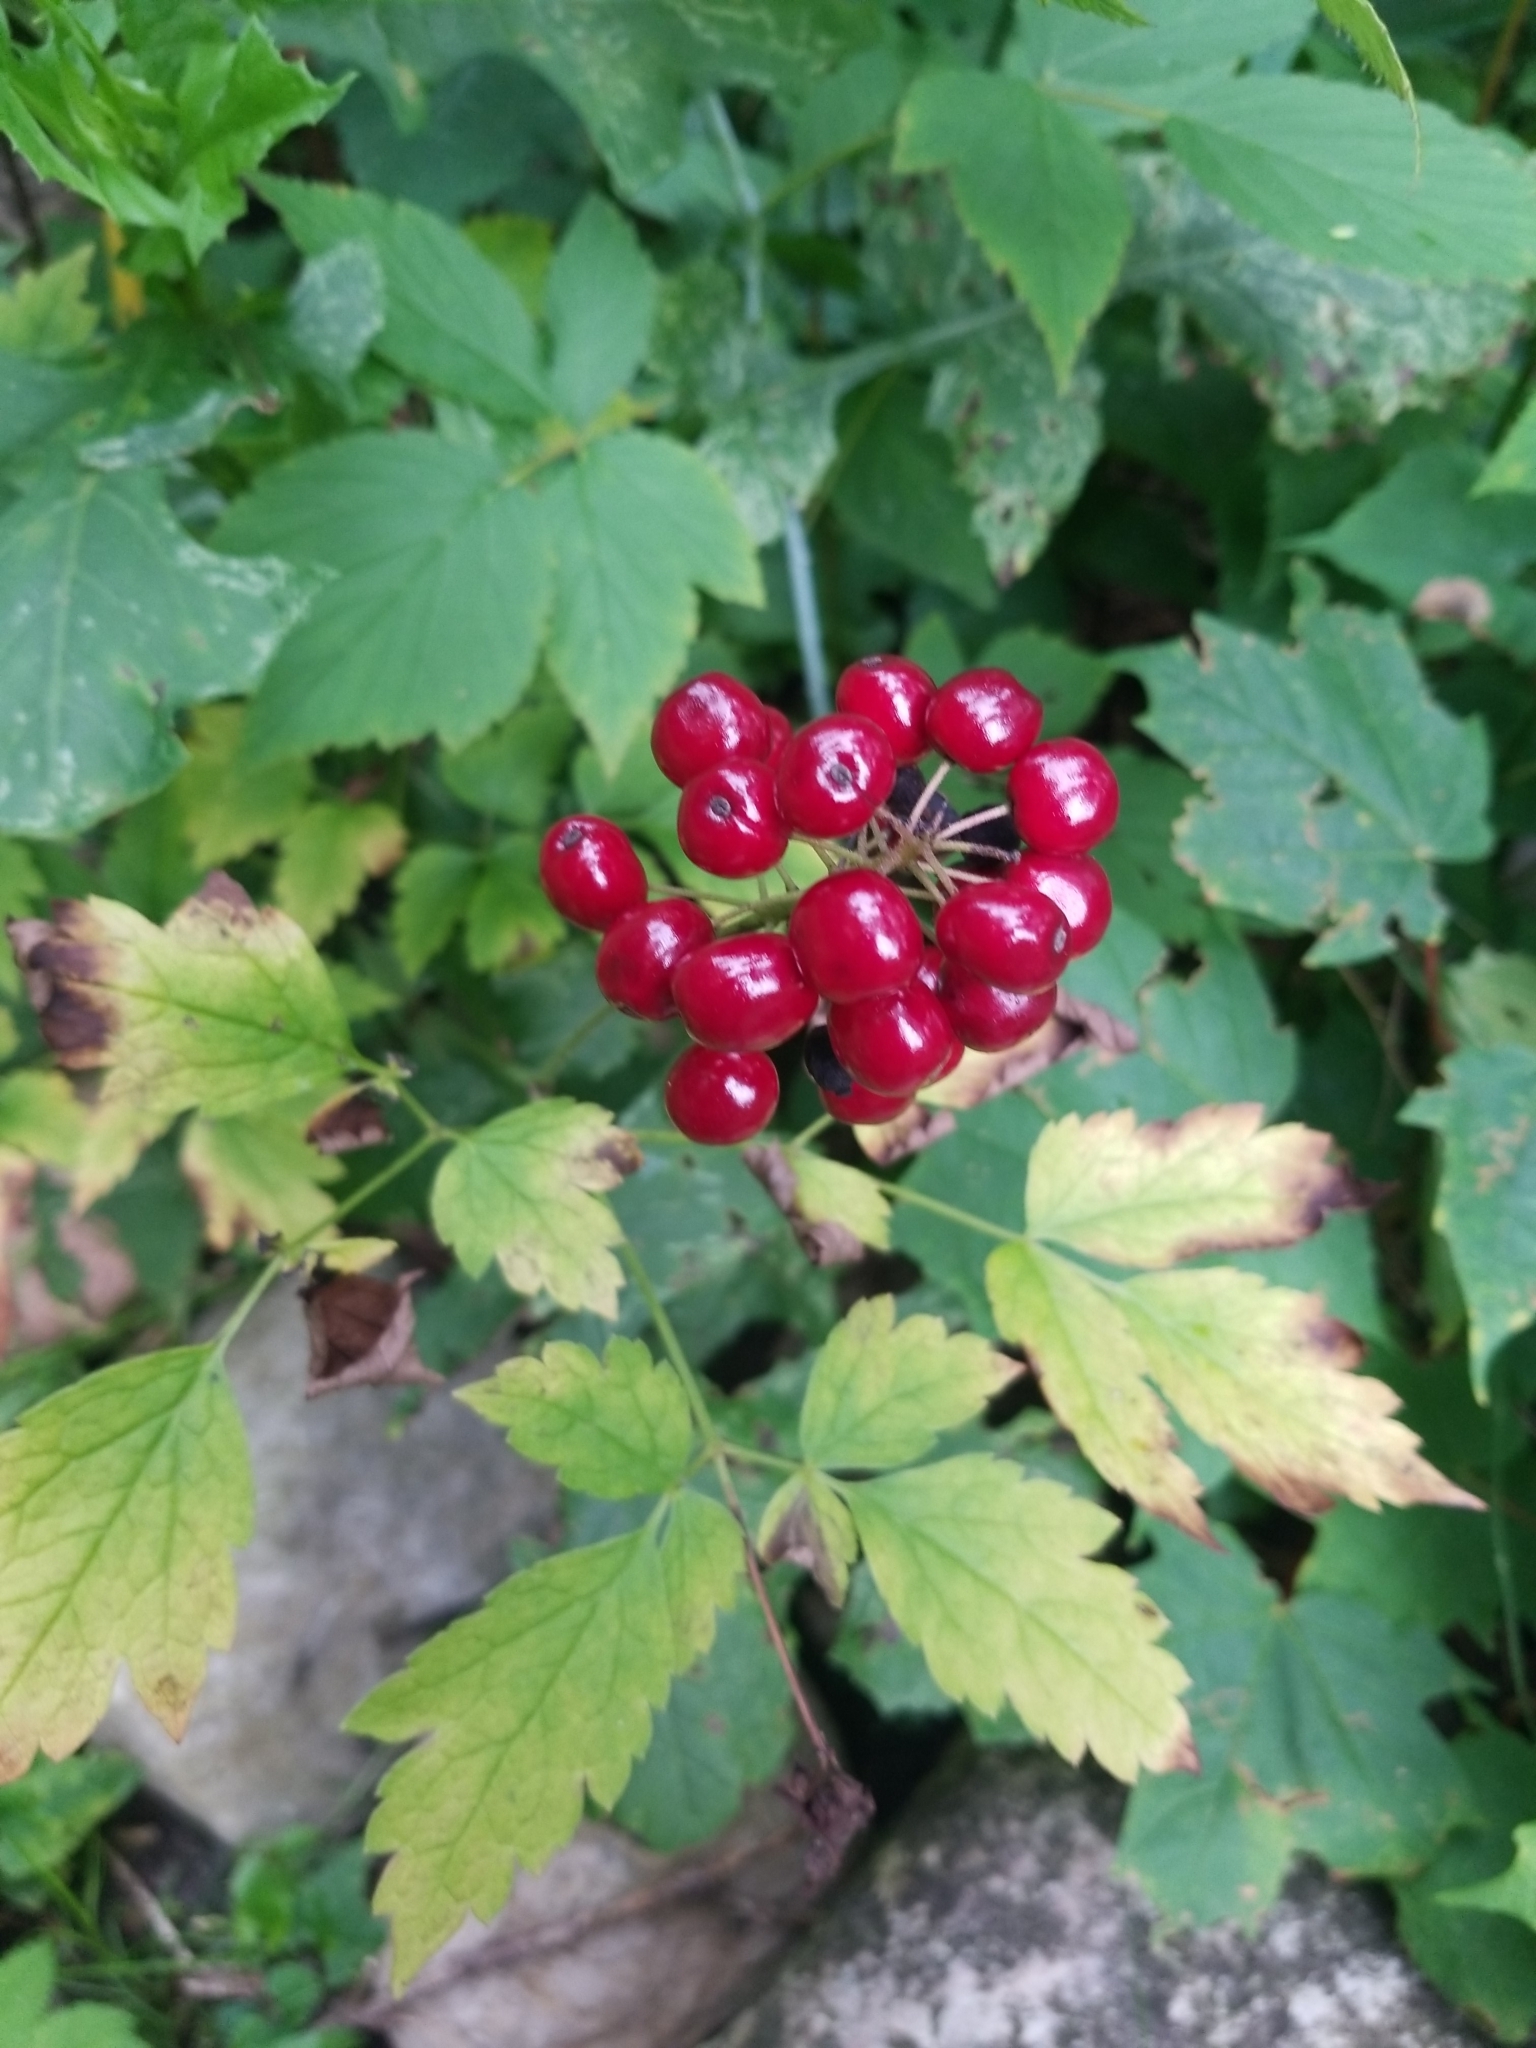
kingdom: Plantae
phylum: Tracheophyta
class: Magnoliopsida
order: Ranunculales
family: Ranunculaceae
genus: Actaea
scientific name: Actaea rubra
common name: Red baneberry
